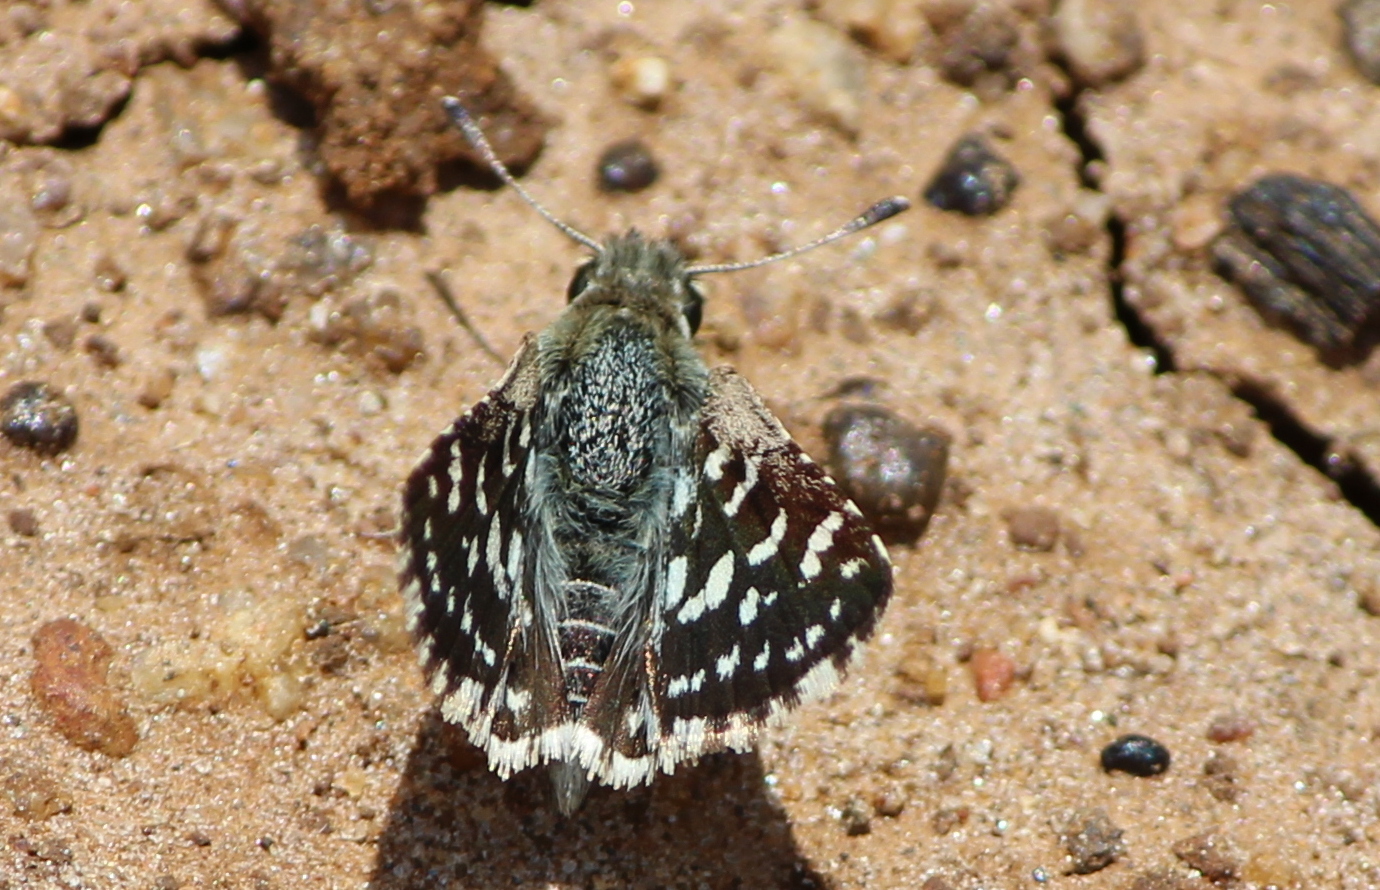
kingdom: Animalia
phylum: Arthropoda
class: Insecta
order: Lepidoptera
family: Hesperiidae
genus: Spialia
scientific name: Spialia galba
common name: Indian skipper
